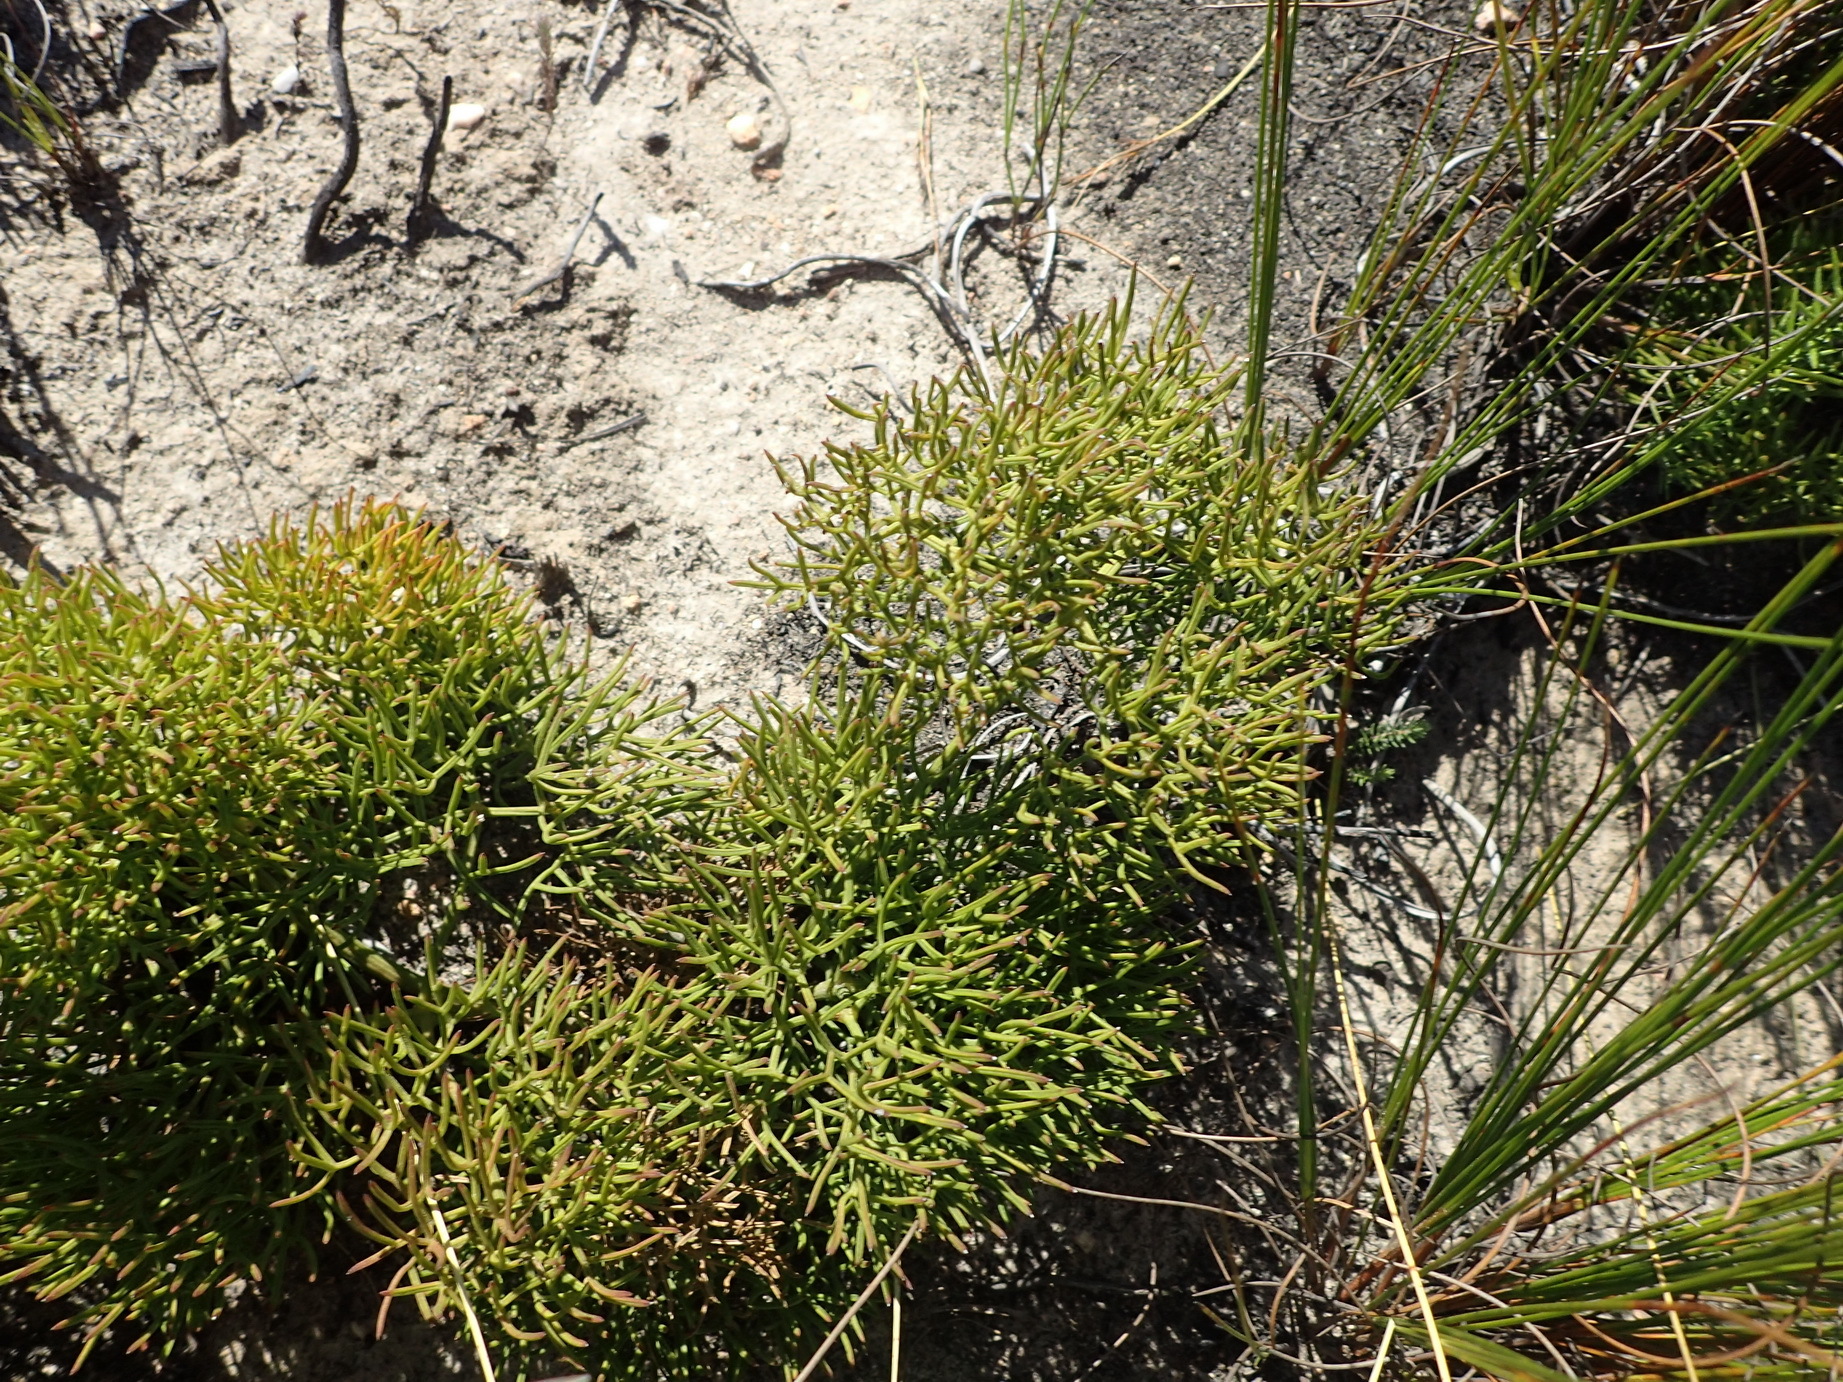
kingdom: Plantae
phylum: Tracheophyta
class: Magnoliopsida
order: Apiales
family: Apiaceae
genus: Nanobubon
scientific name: Nanobubon capillaceum
